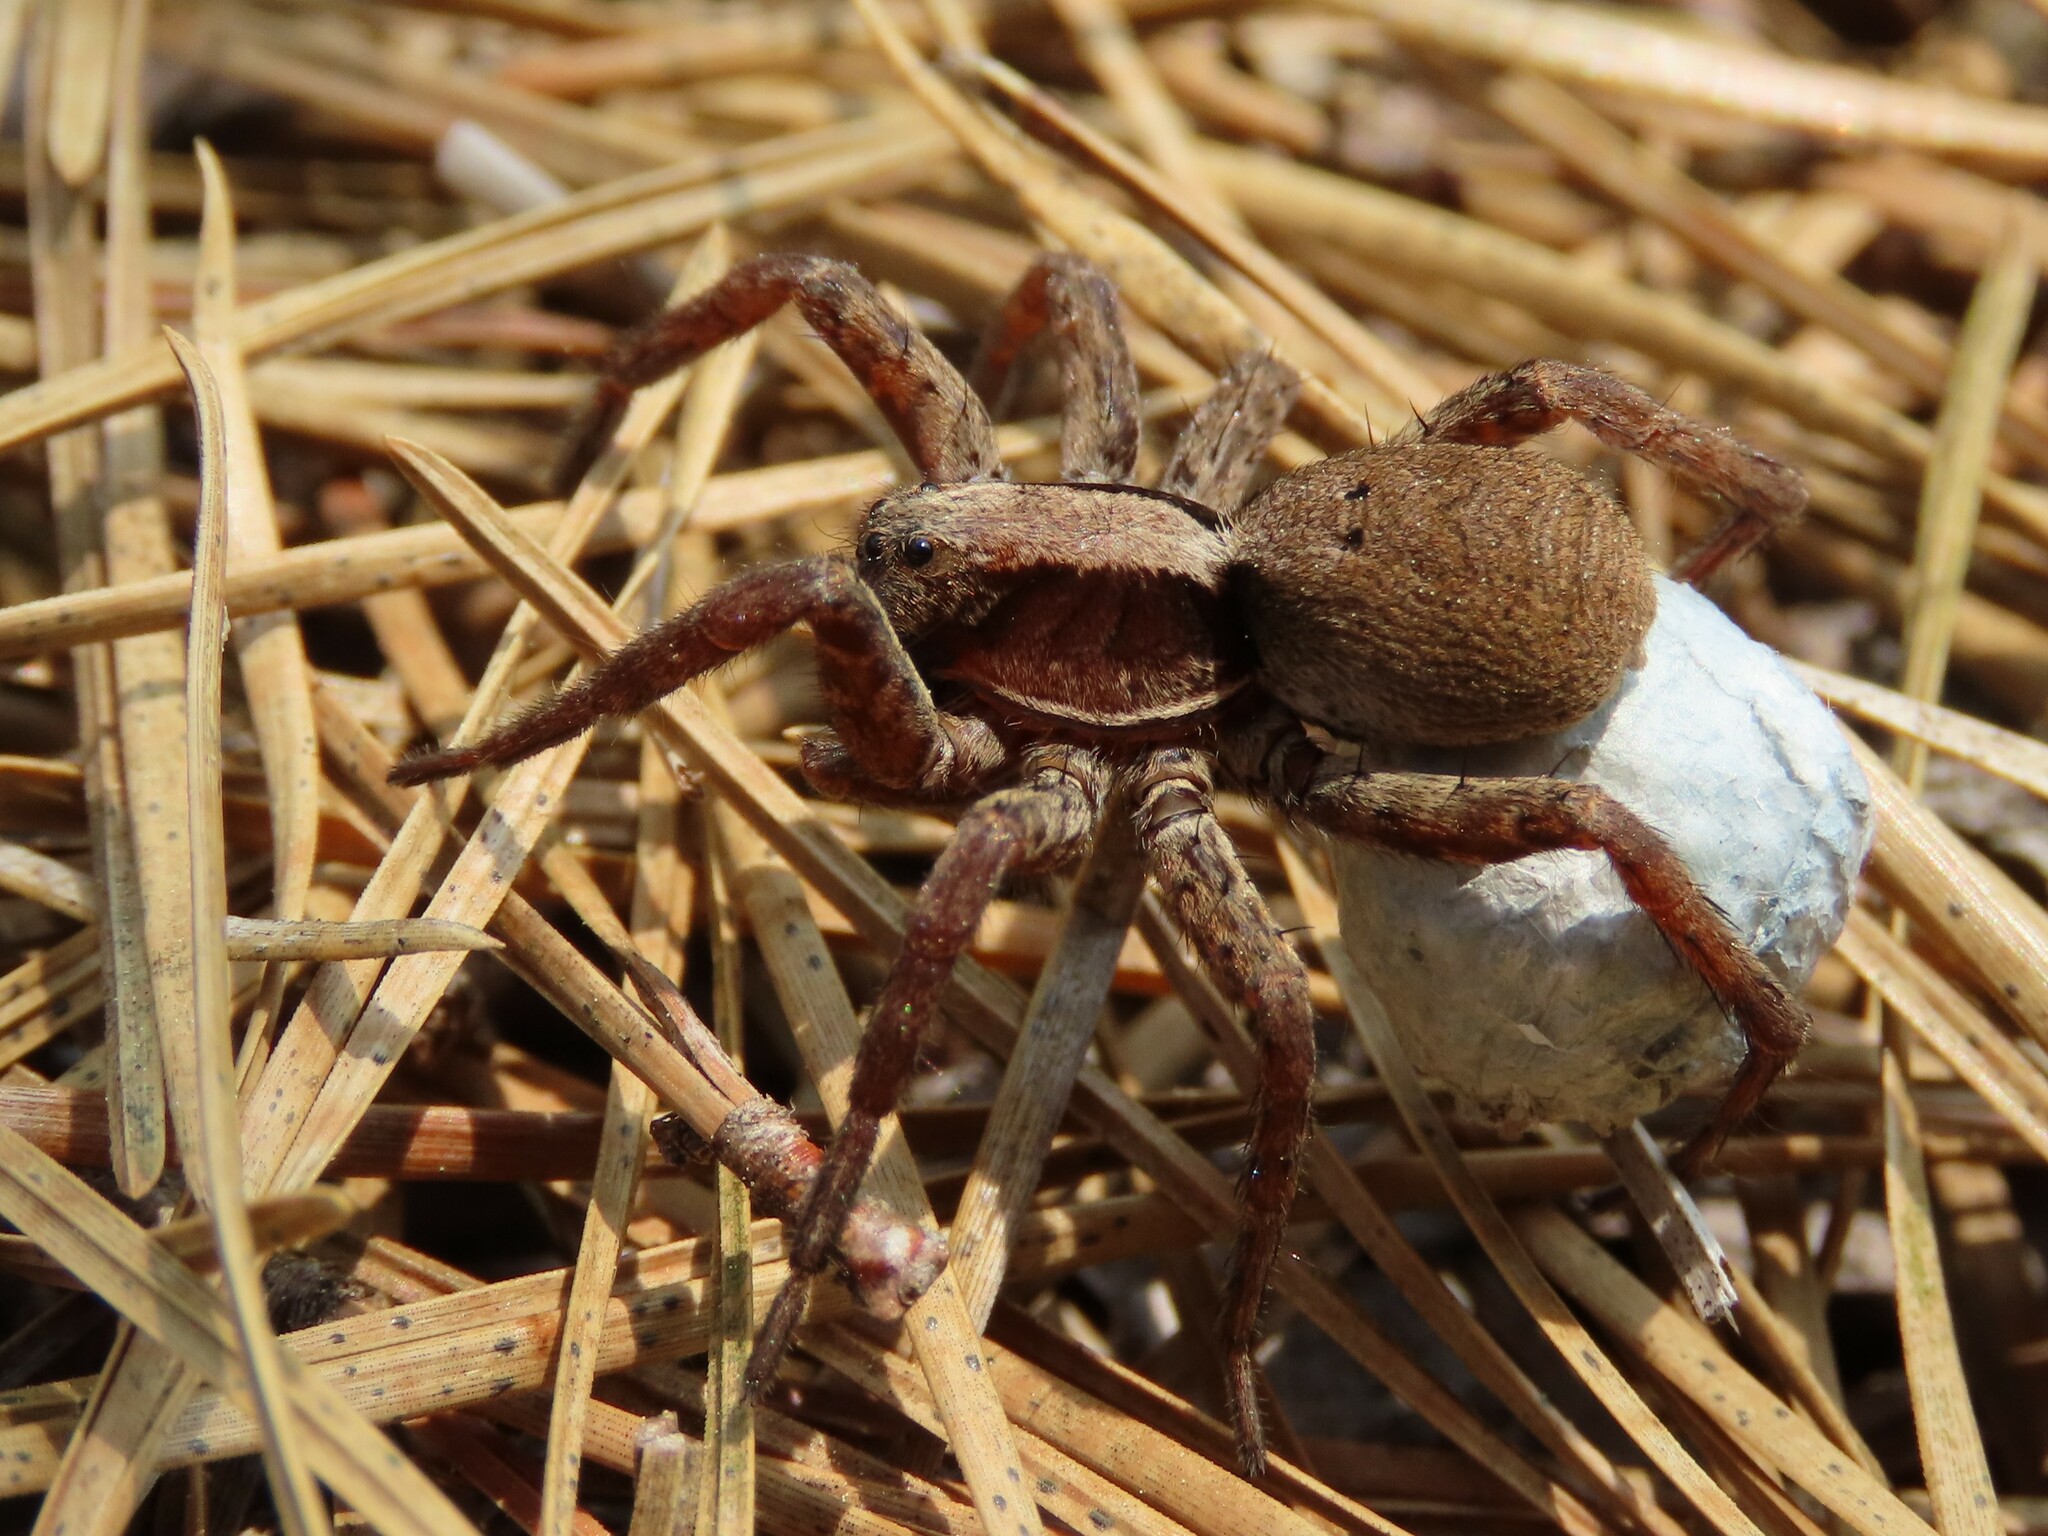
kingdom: Animalia
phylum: Arthropoda
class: Arachnida
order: Araneae
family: Lycosidae
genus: Hogna
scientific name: Hogna frondicola
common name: Forest wolf spider
